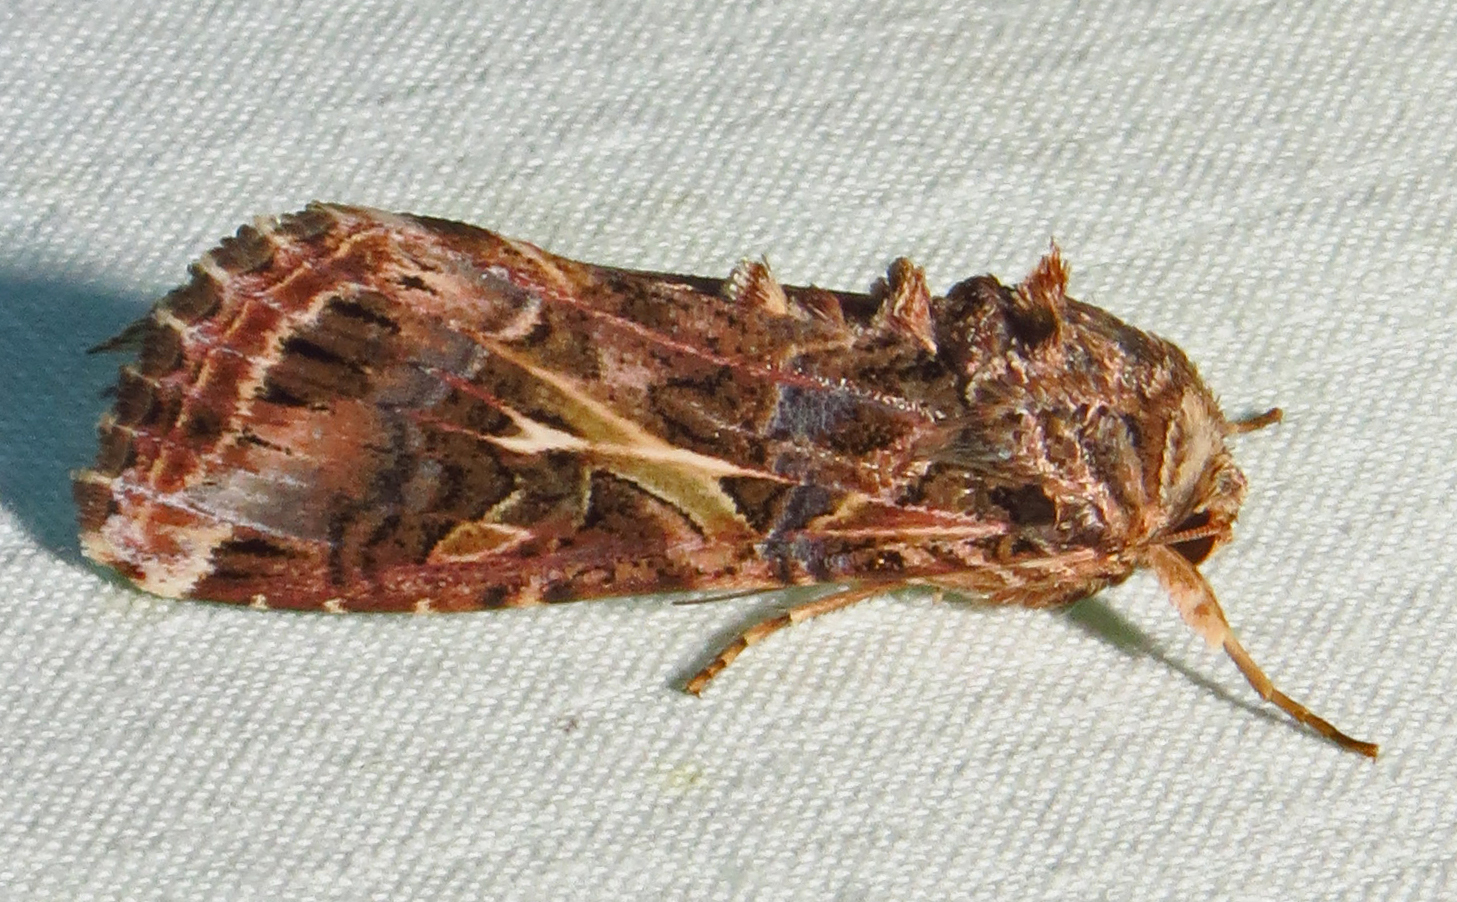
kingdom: Animalia
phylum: Arthropoda
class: Insecta
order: Lepidoptera
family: Noctuidae
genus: Spodoptera
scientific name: Spodoptera ornithogalli
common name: Yellow-striped armyworm
